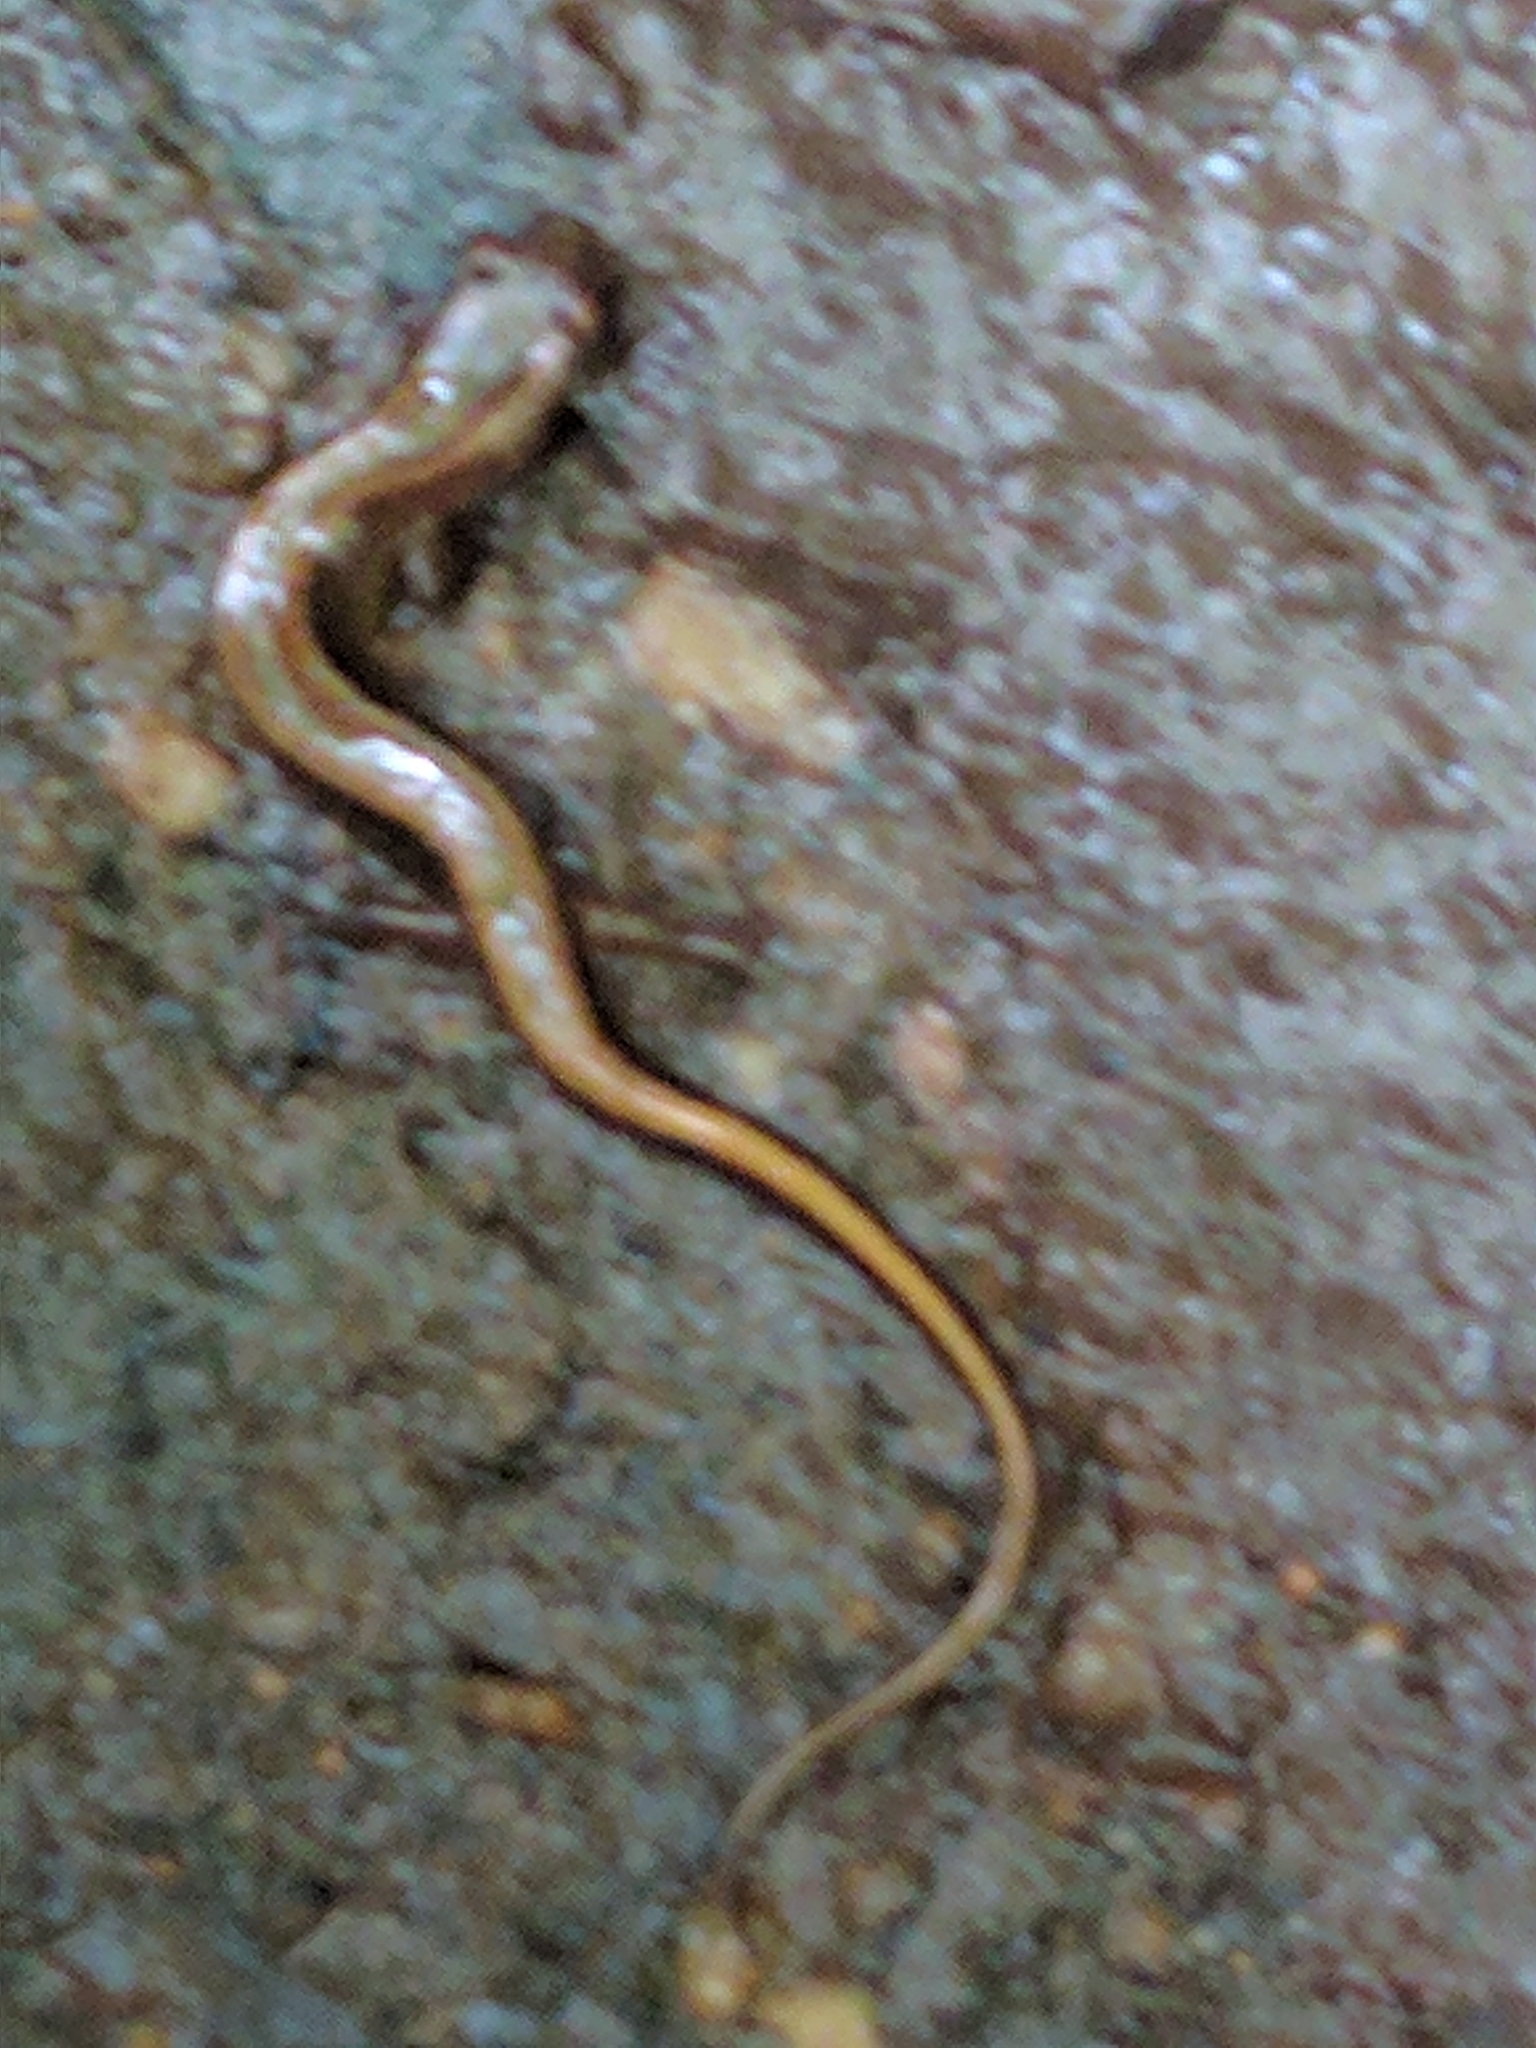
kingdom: Animalia
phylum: Chordata
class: Amphibia
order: Caudata
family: Plethodontidae
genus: Eurycea
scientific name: Eurycea bislineata
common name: Northern two-lined salamander
